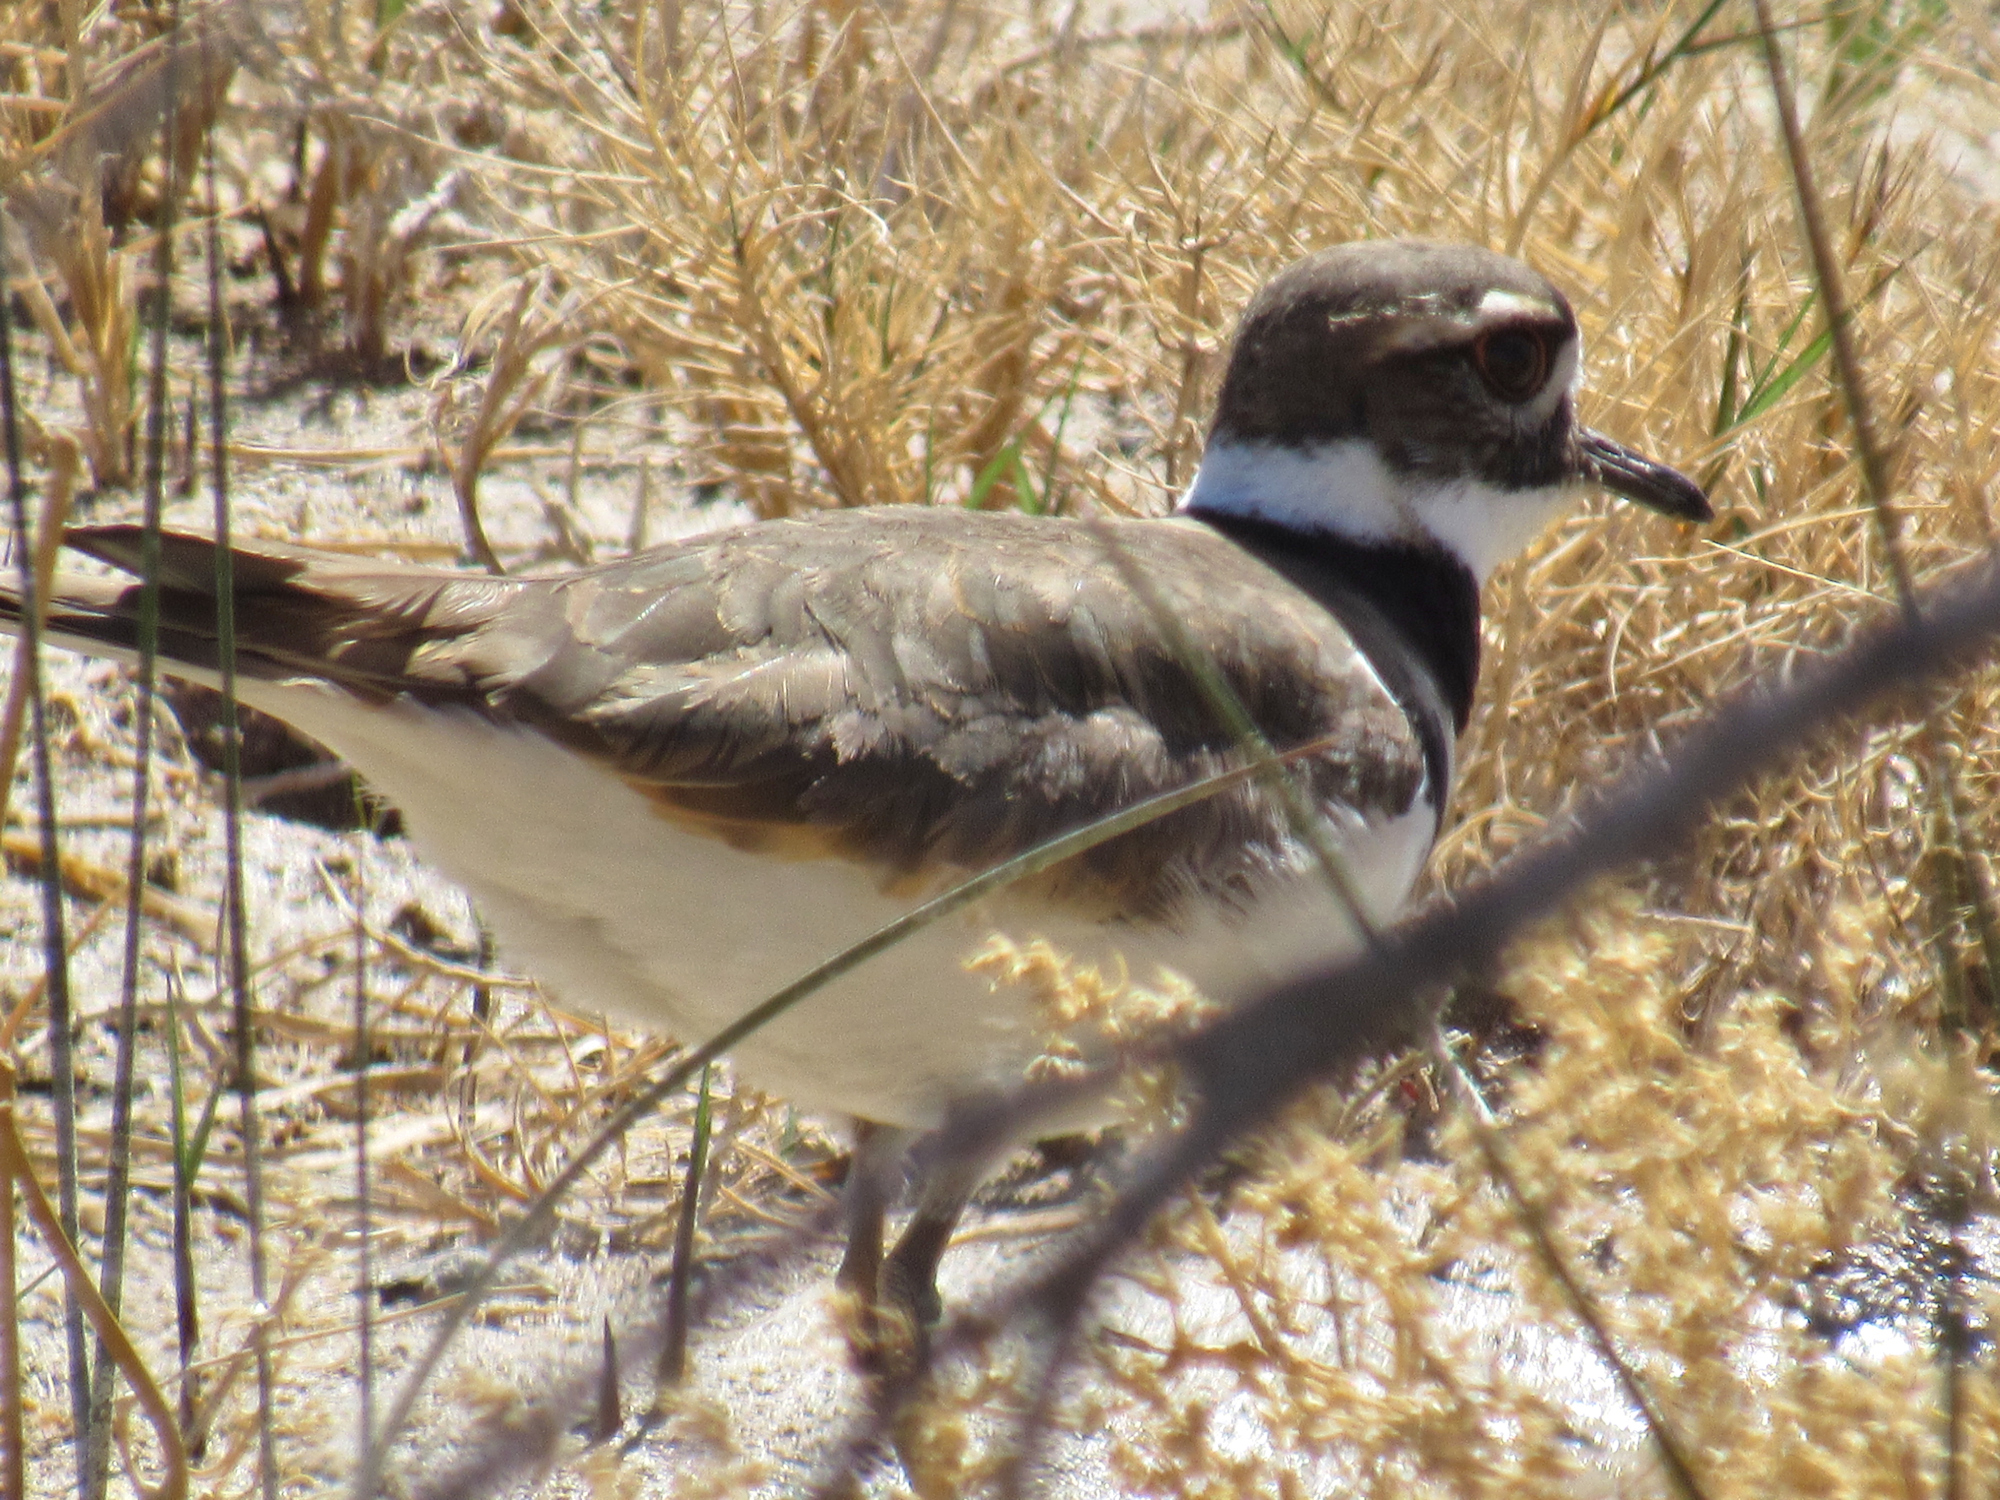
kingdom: Animalia
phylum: Chordata
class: Aves
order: Charadriiformes
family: Charadriidae
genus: Charadrius
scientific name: Charadrius vociferus
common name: Killdeer
